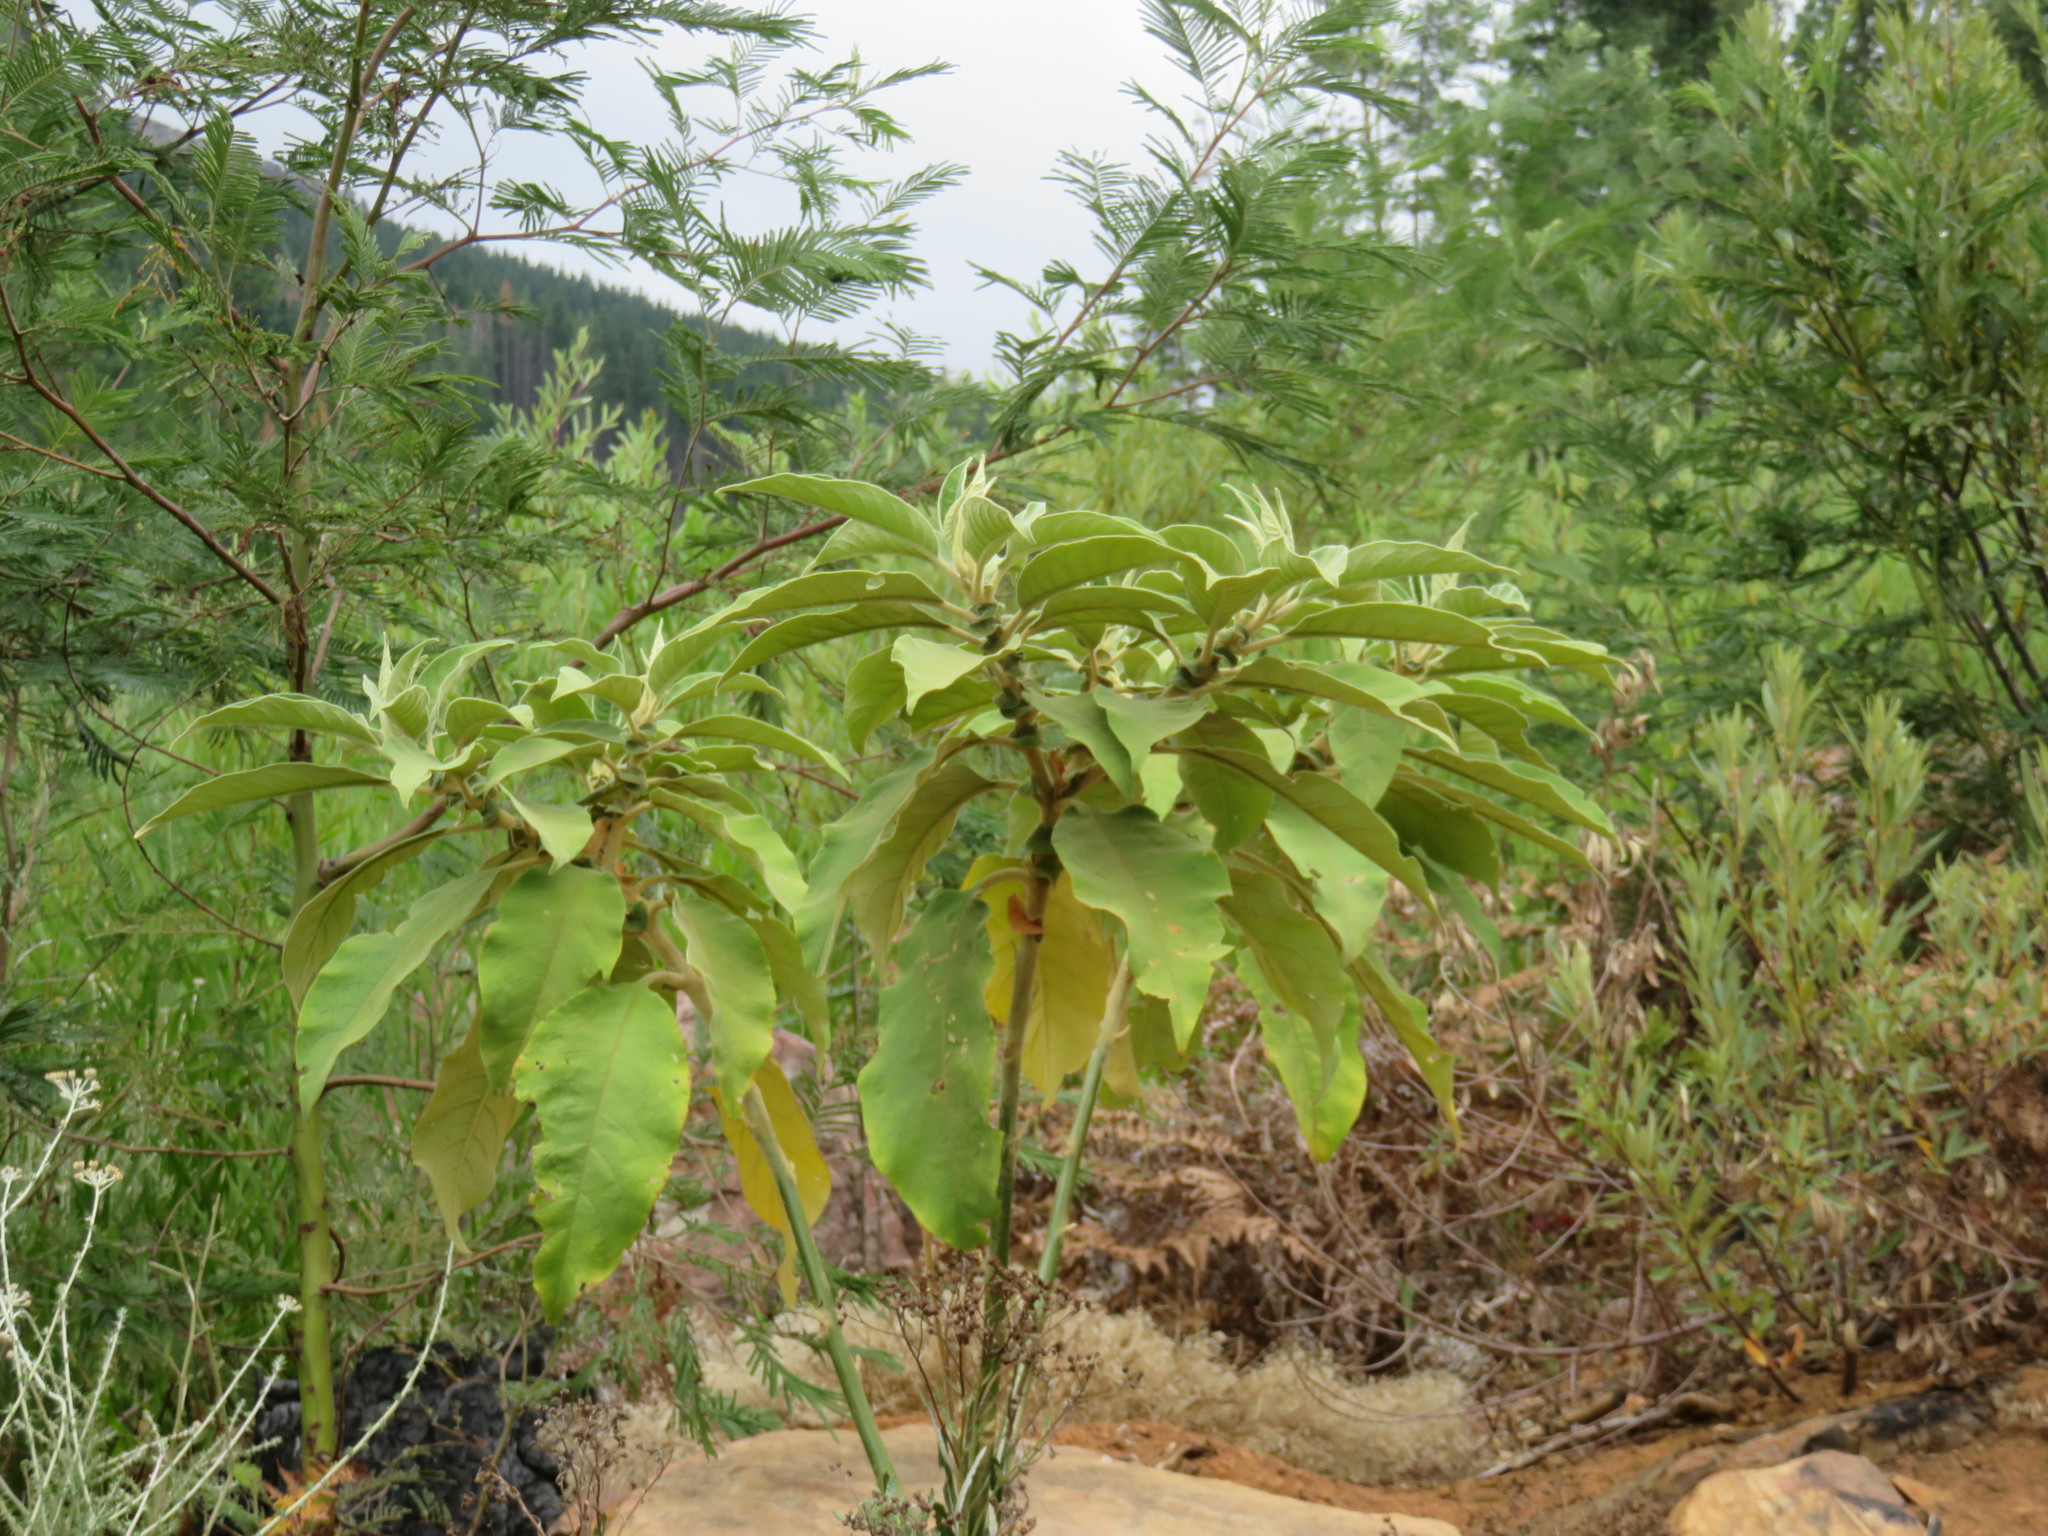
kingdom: Plantae
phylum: Tracheophyta
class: Magnoliopsida
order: Solanales
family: Solanaceae
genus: Solanum
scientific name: Solanum mauritianum
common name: Earleaf nightshade
